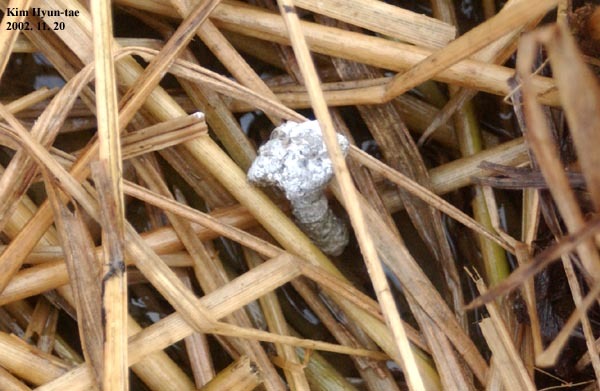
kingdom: Animalia
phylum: Chordata
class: Aves
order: Anseriformes
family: Anatidae
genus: Sibirionetta
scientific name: Sibirionetta formosa
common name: Baikal teal
